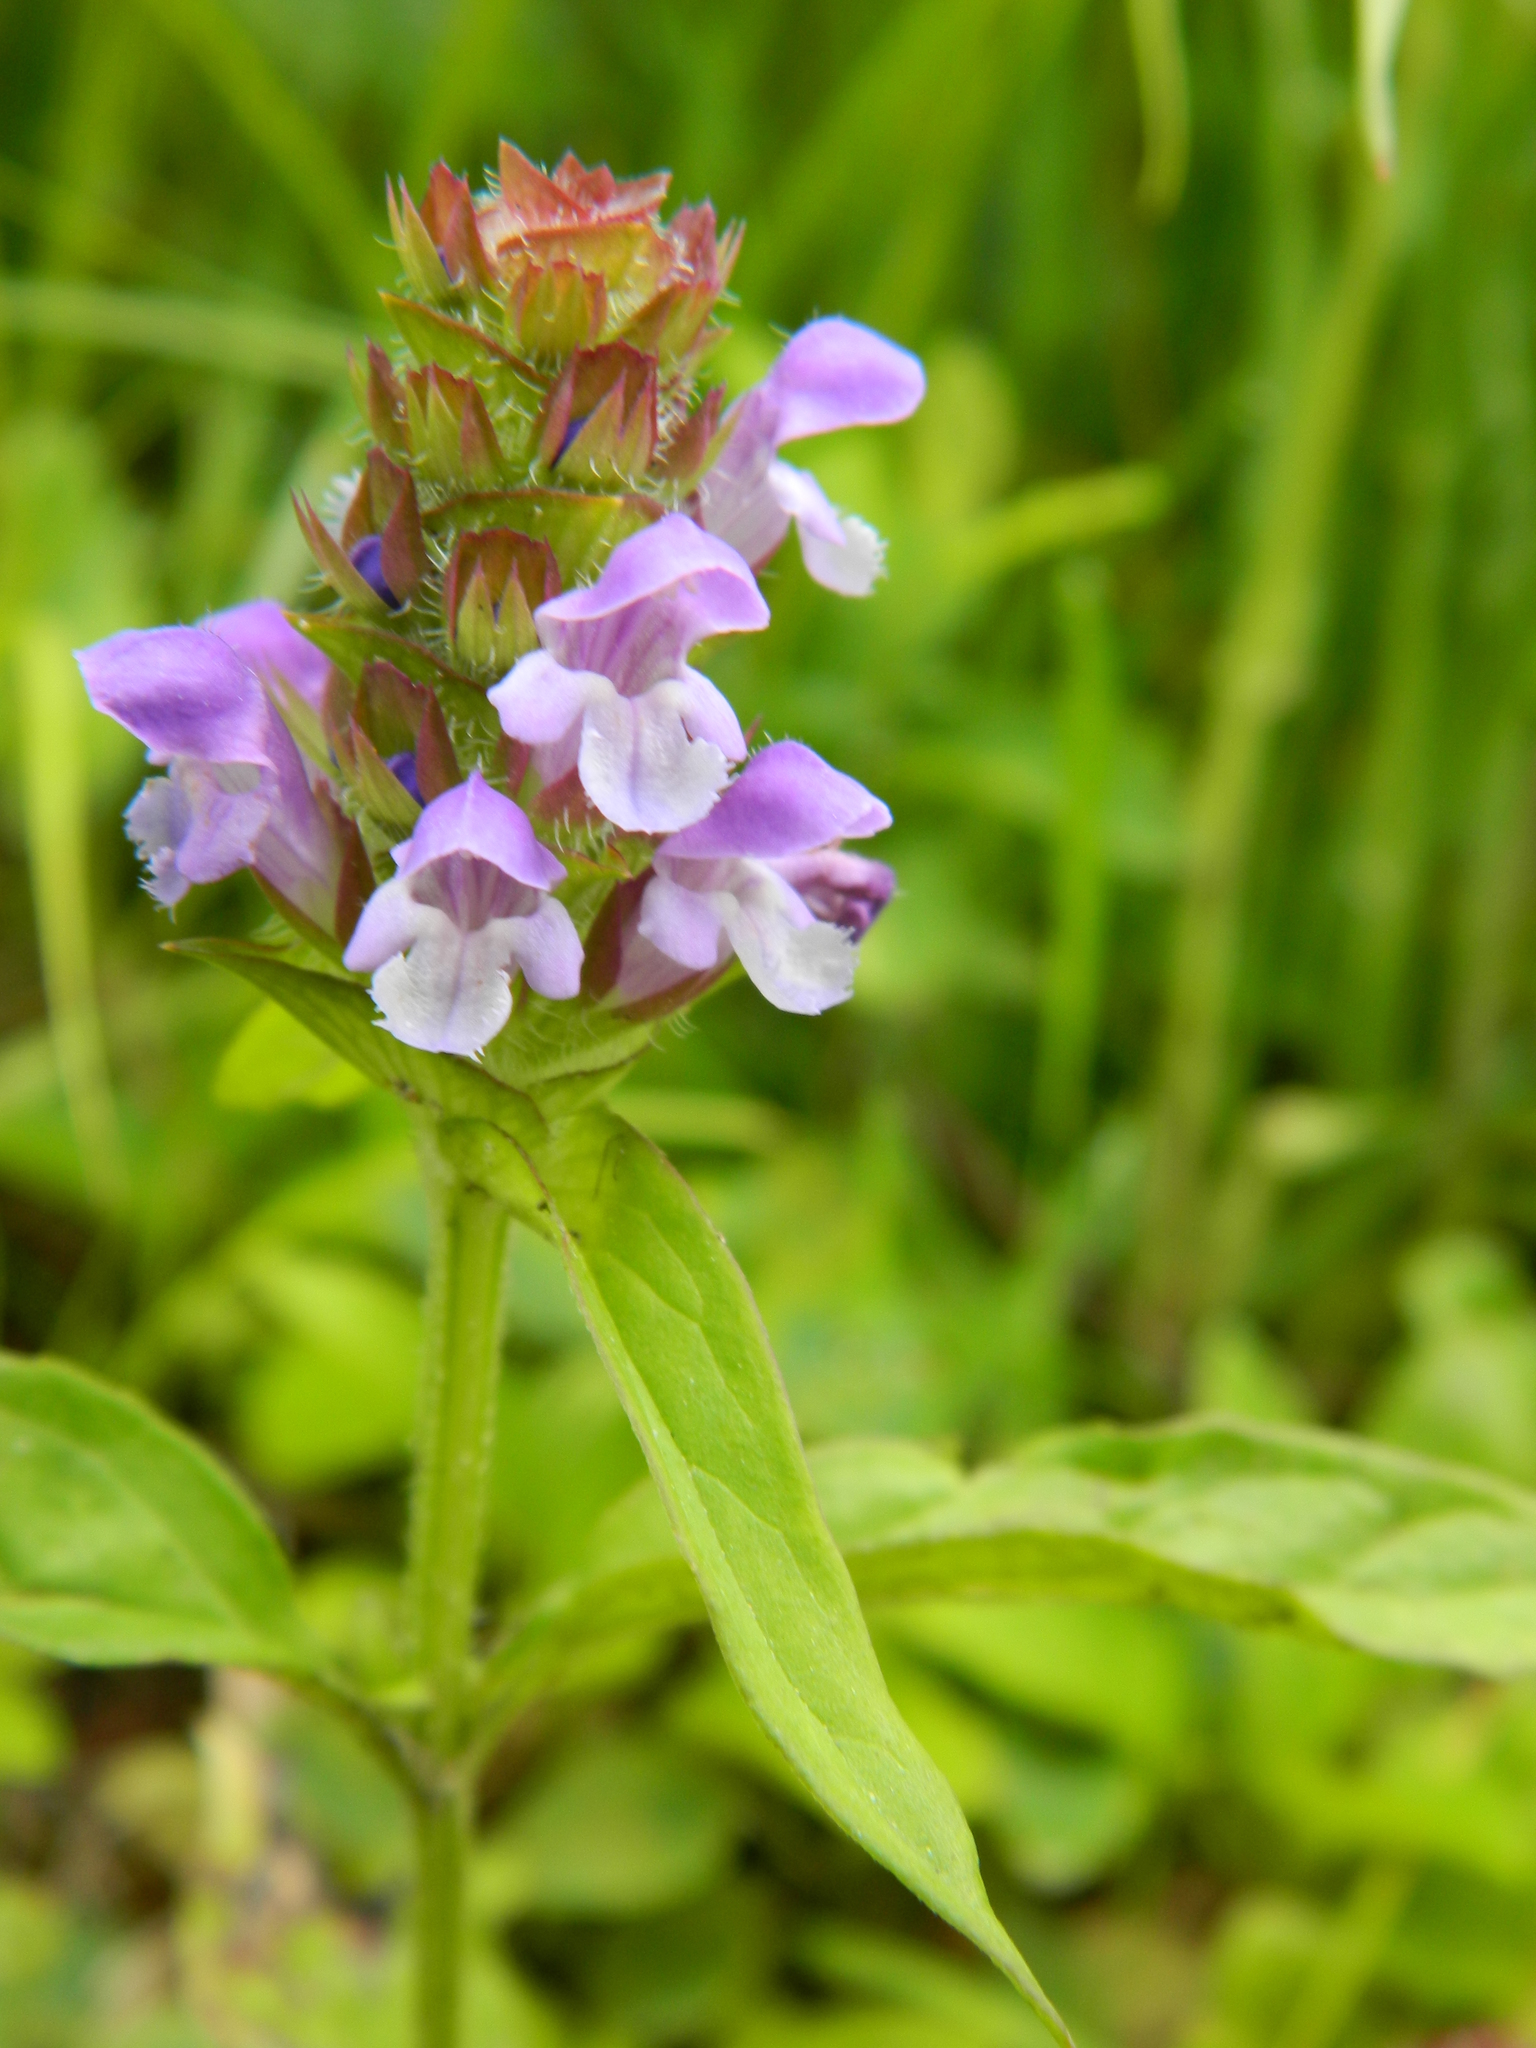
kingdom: Plantae
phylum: Tracheophyta
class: Magnoliopsida
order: Lamiales
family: Lamiaceae
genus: Prunella
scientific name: Prunella vulgaris
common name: Heal-all
